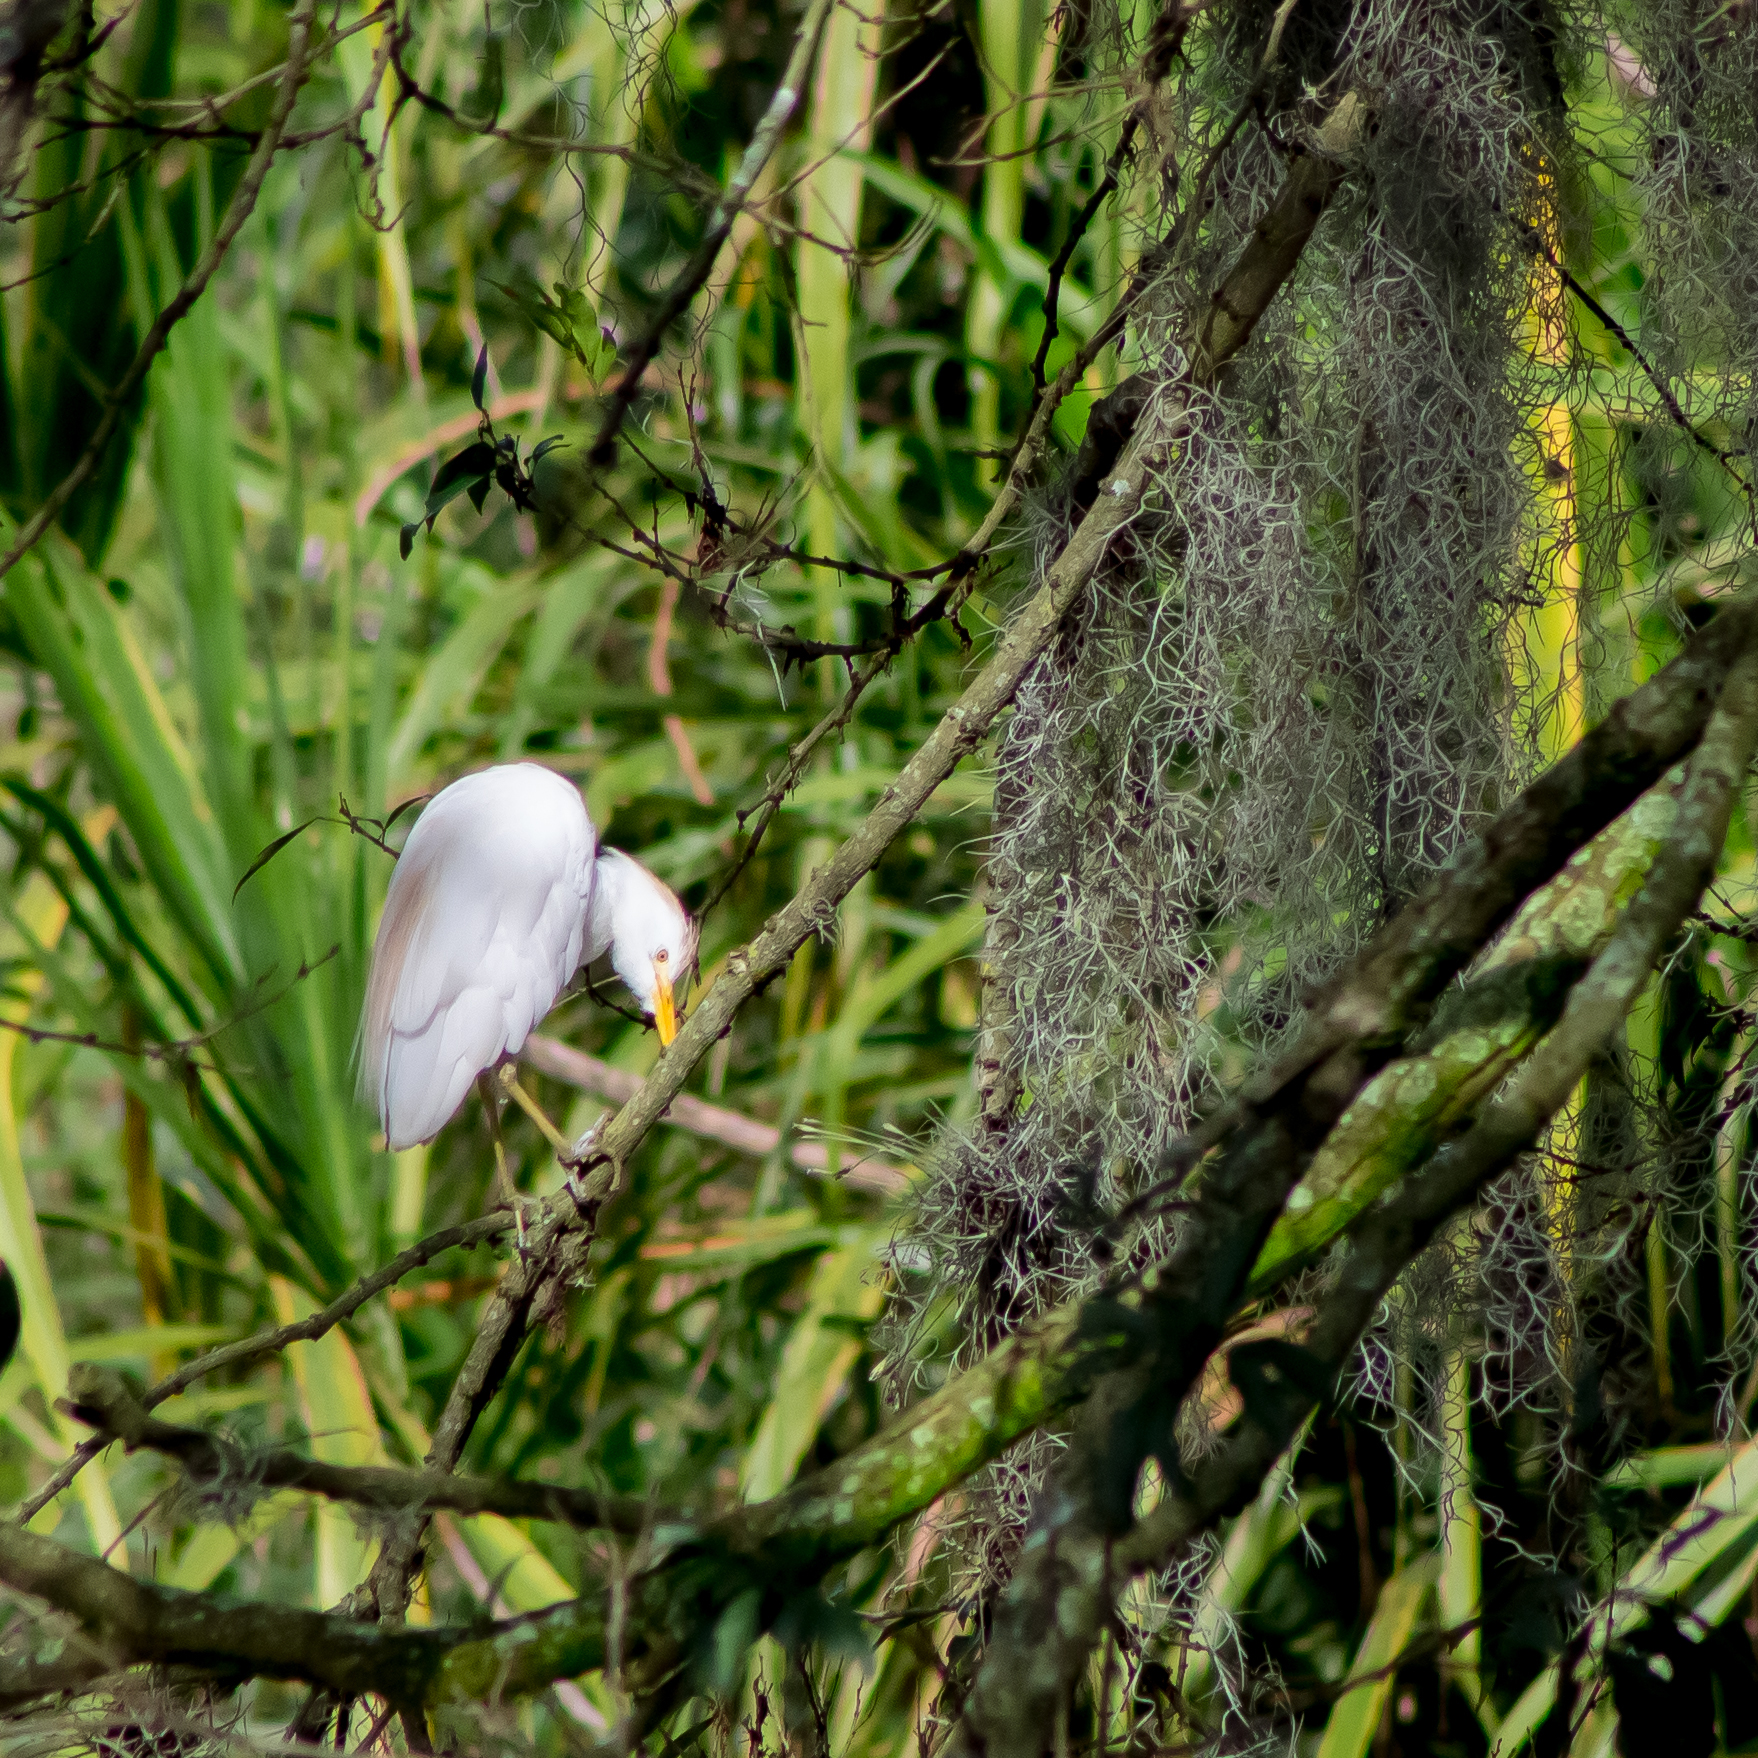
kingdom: Animalia
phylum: Chordata
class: Aves
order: Pelecaniformes
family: Ardeidae
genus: Bubulcus
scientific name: Bubulcus ibis
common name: Cattle egret
